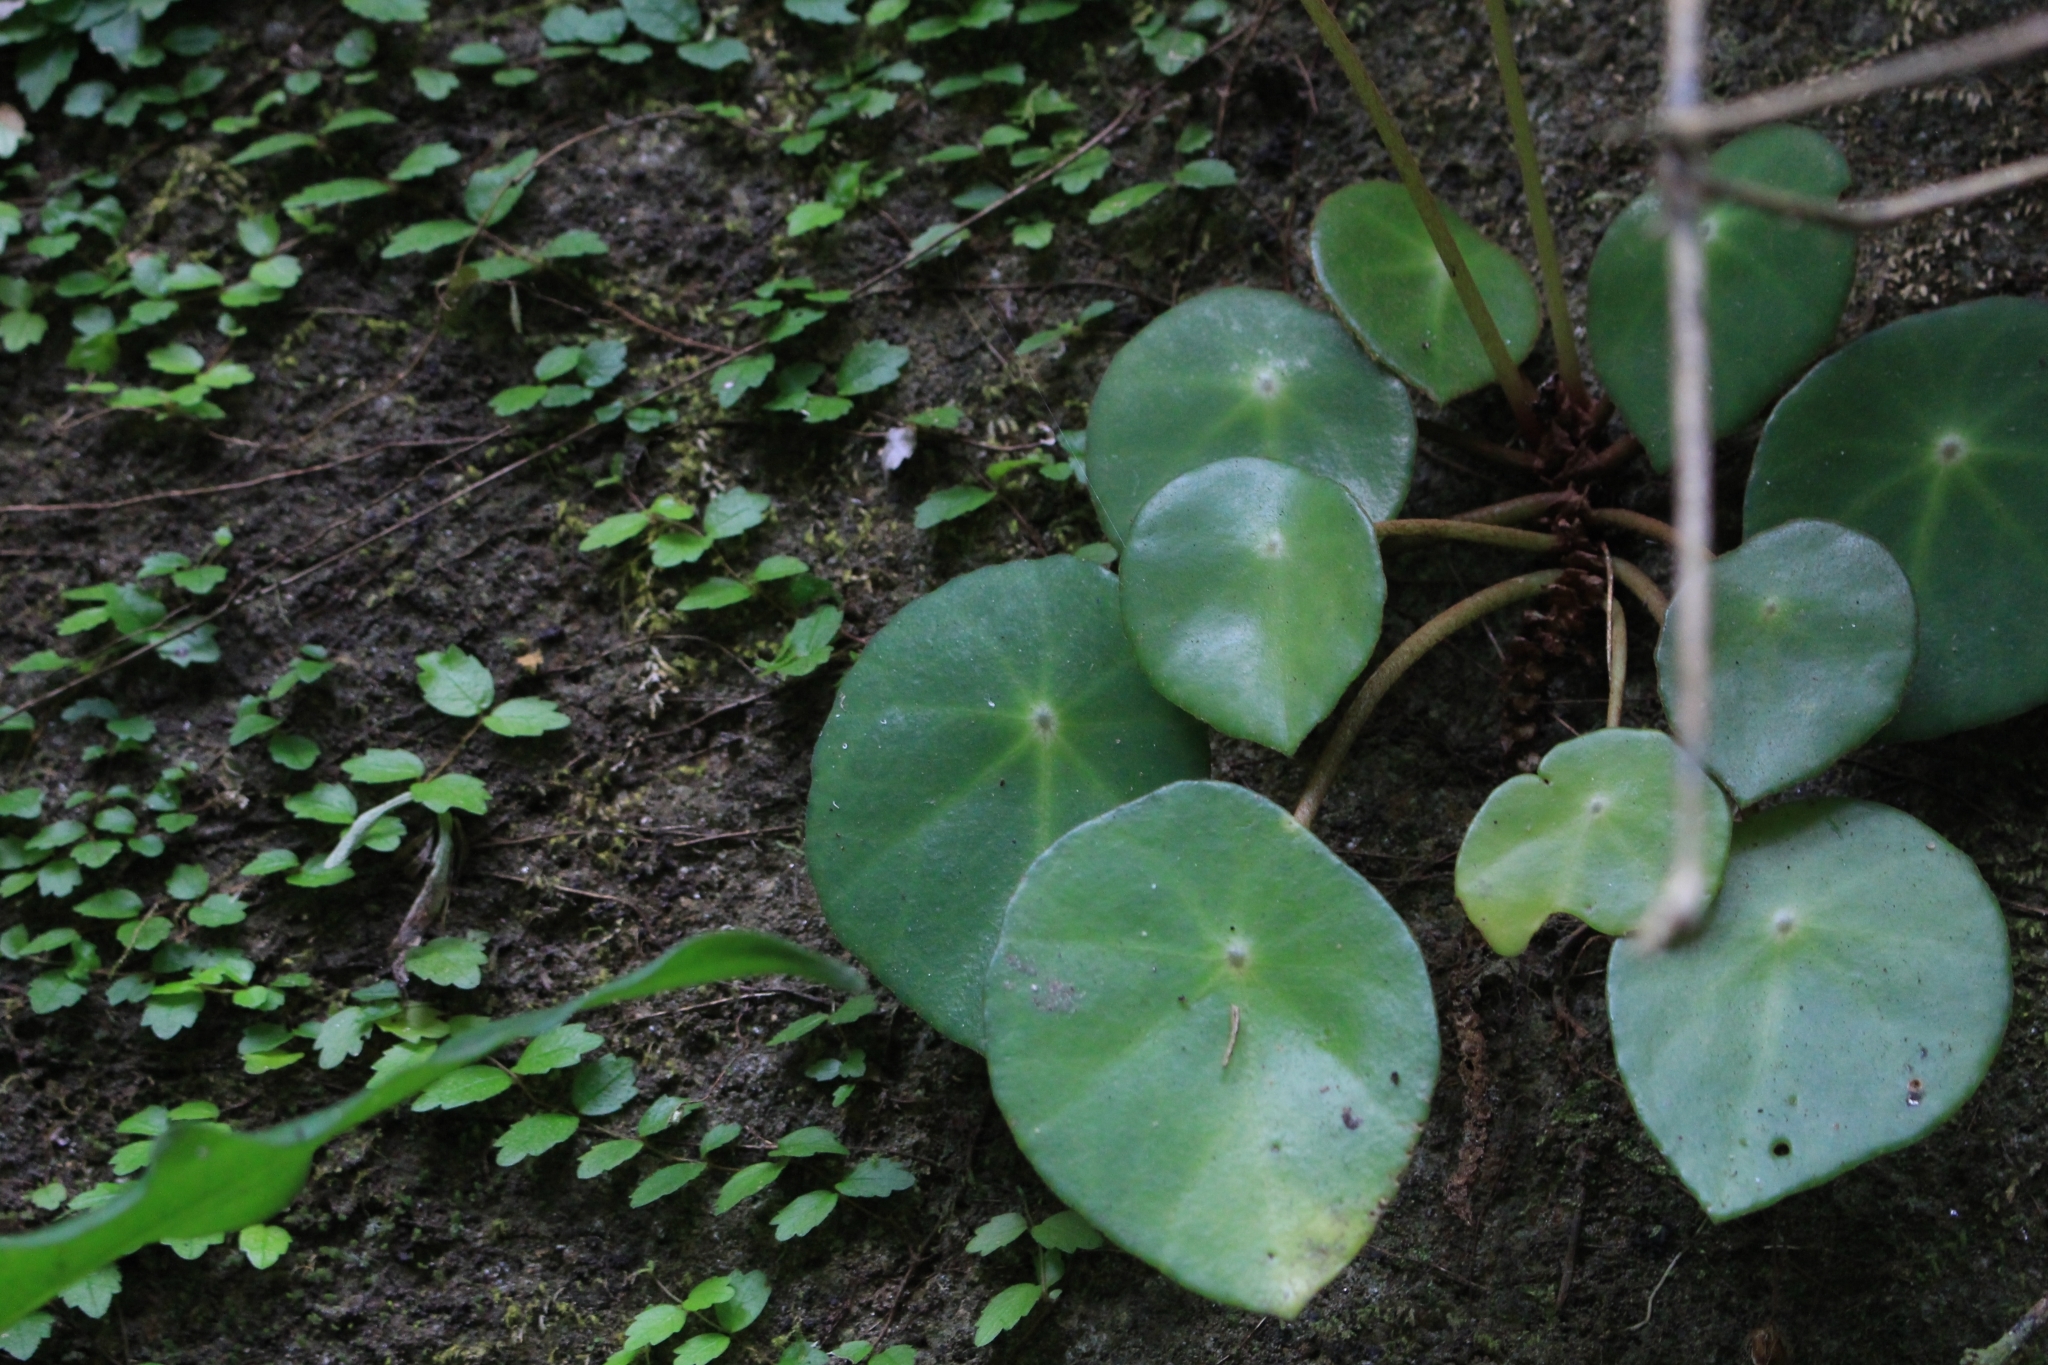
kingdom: Plantae
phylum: Tracheophyta
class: Magnoliopsida
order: Cucurbitales
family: Begoniaceae
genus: Begonia
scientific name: Begonia conchifolia
